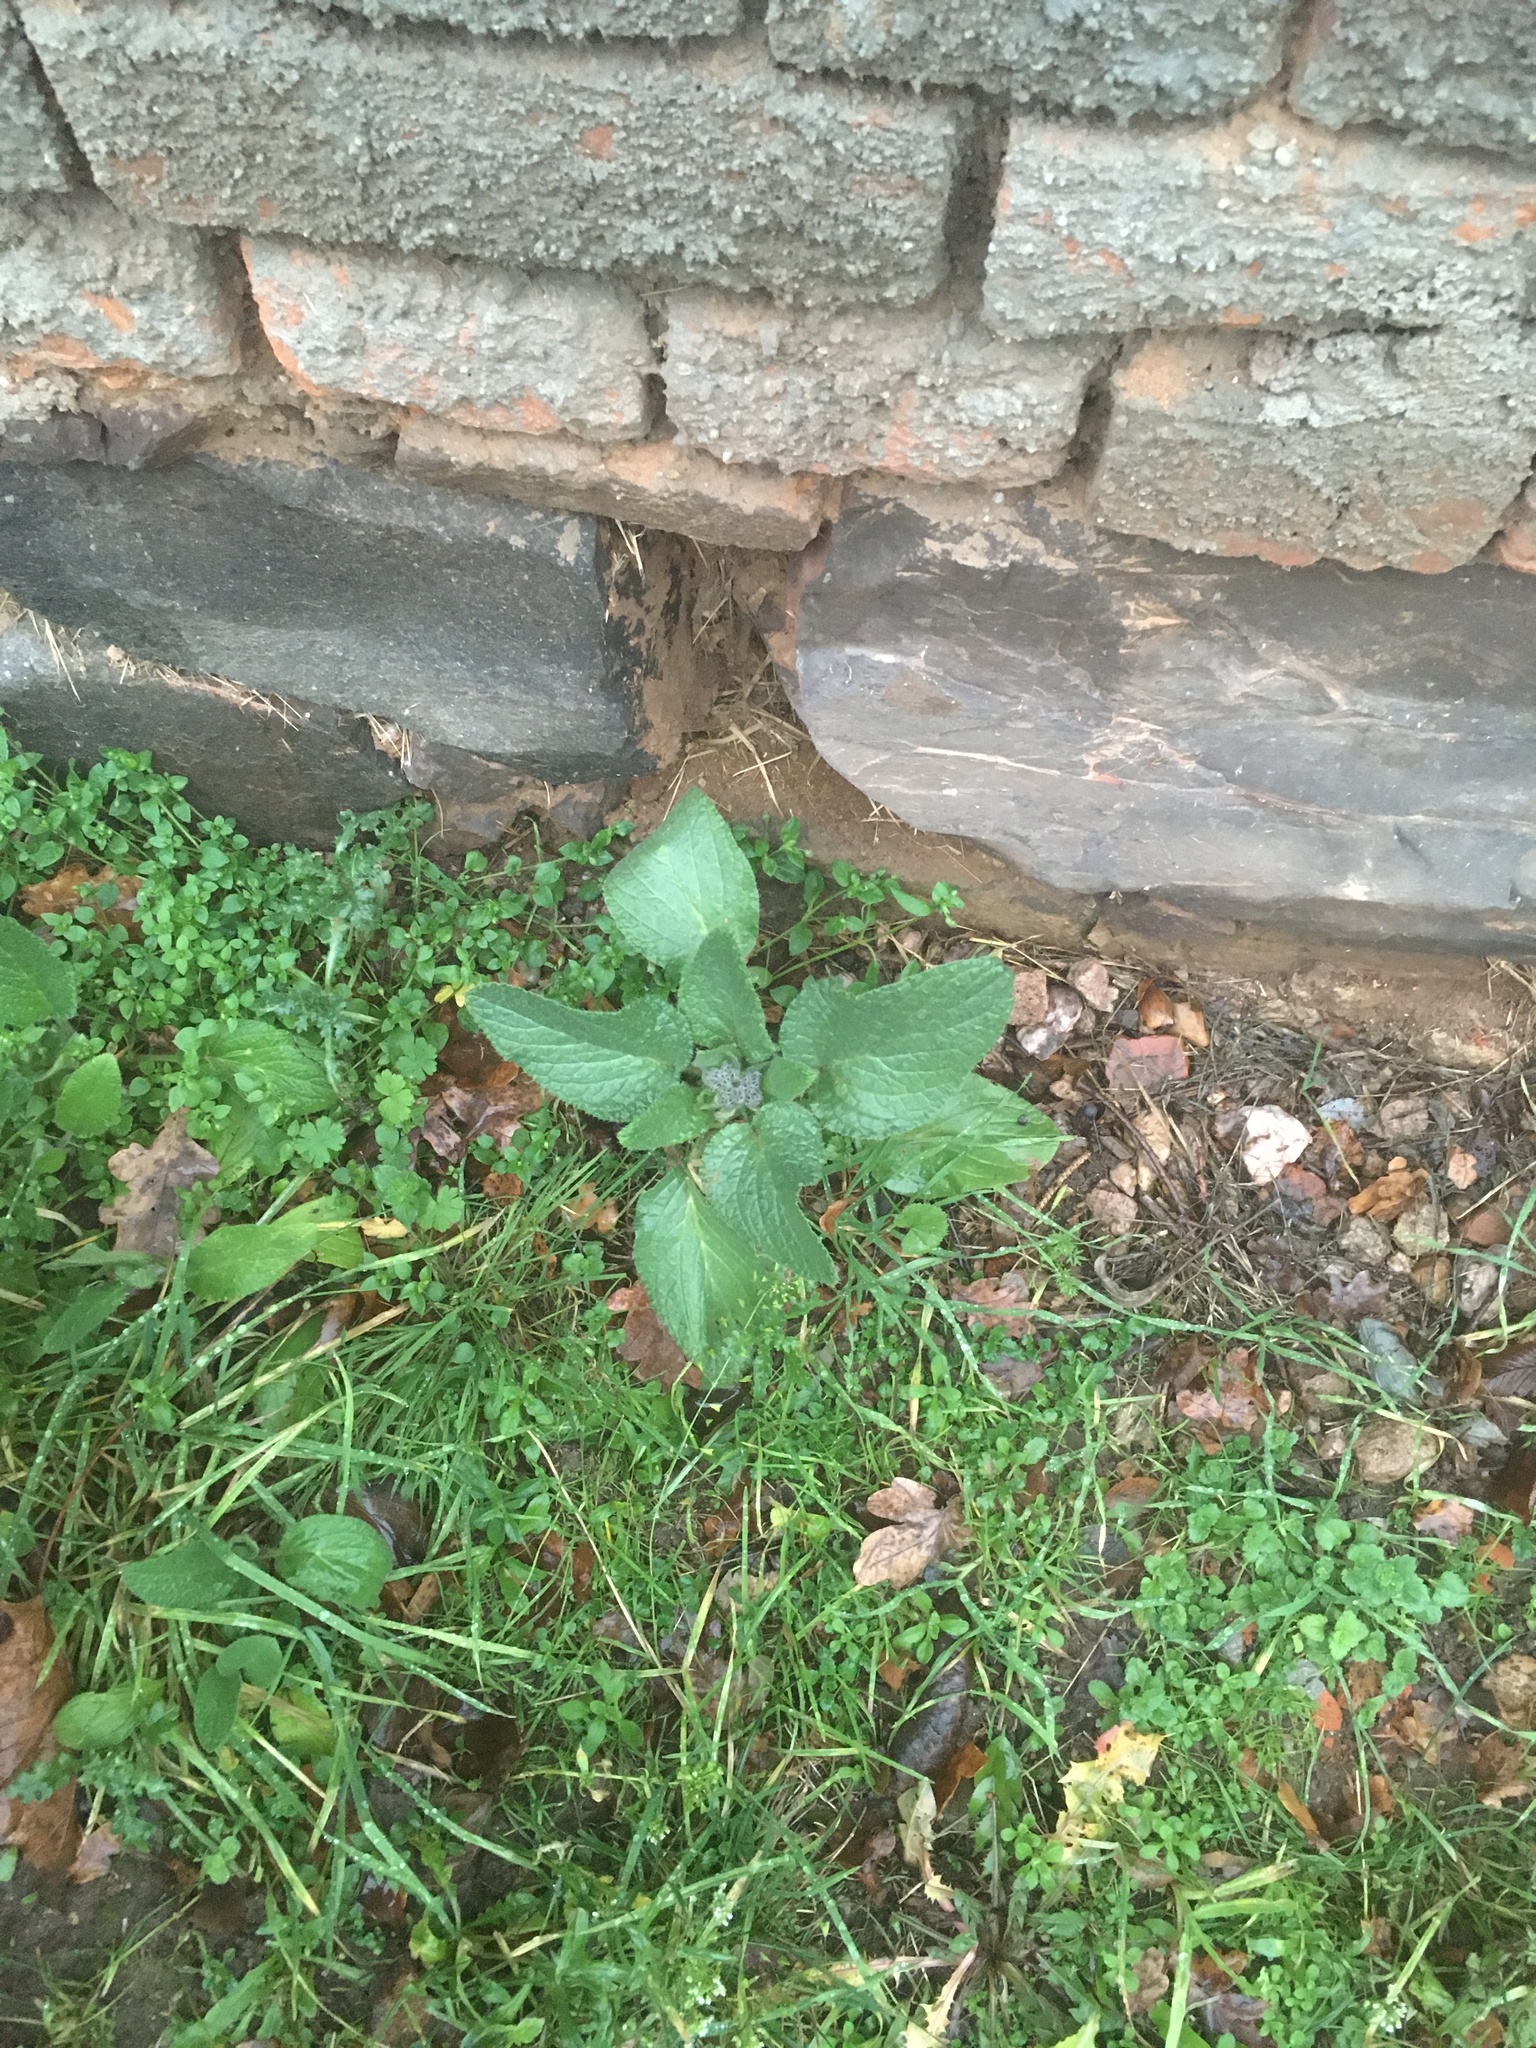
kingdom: Plantae
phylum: Tracheophyta
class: Magnoliopsida
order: Boraginales
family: Boraginaceae
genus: Borago
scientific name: Borago officinalis
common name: Borage
